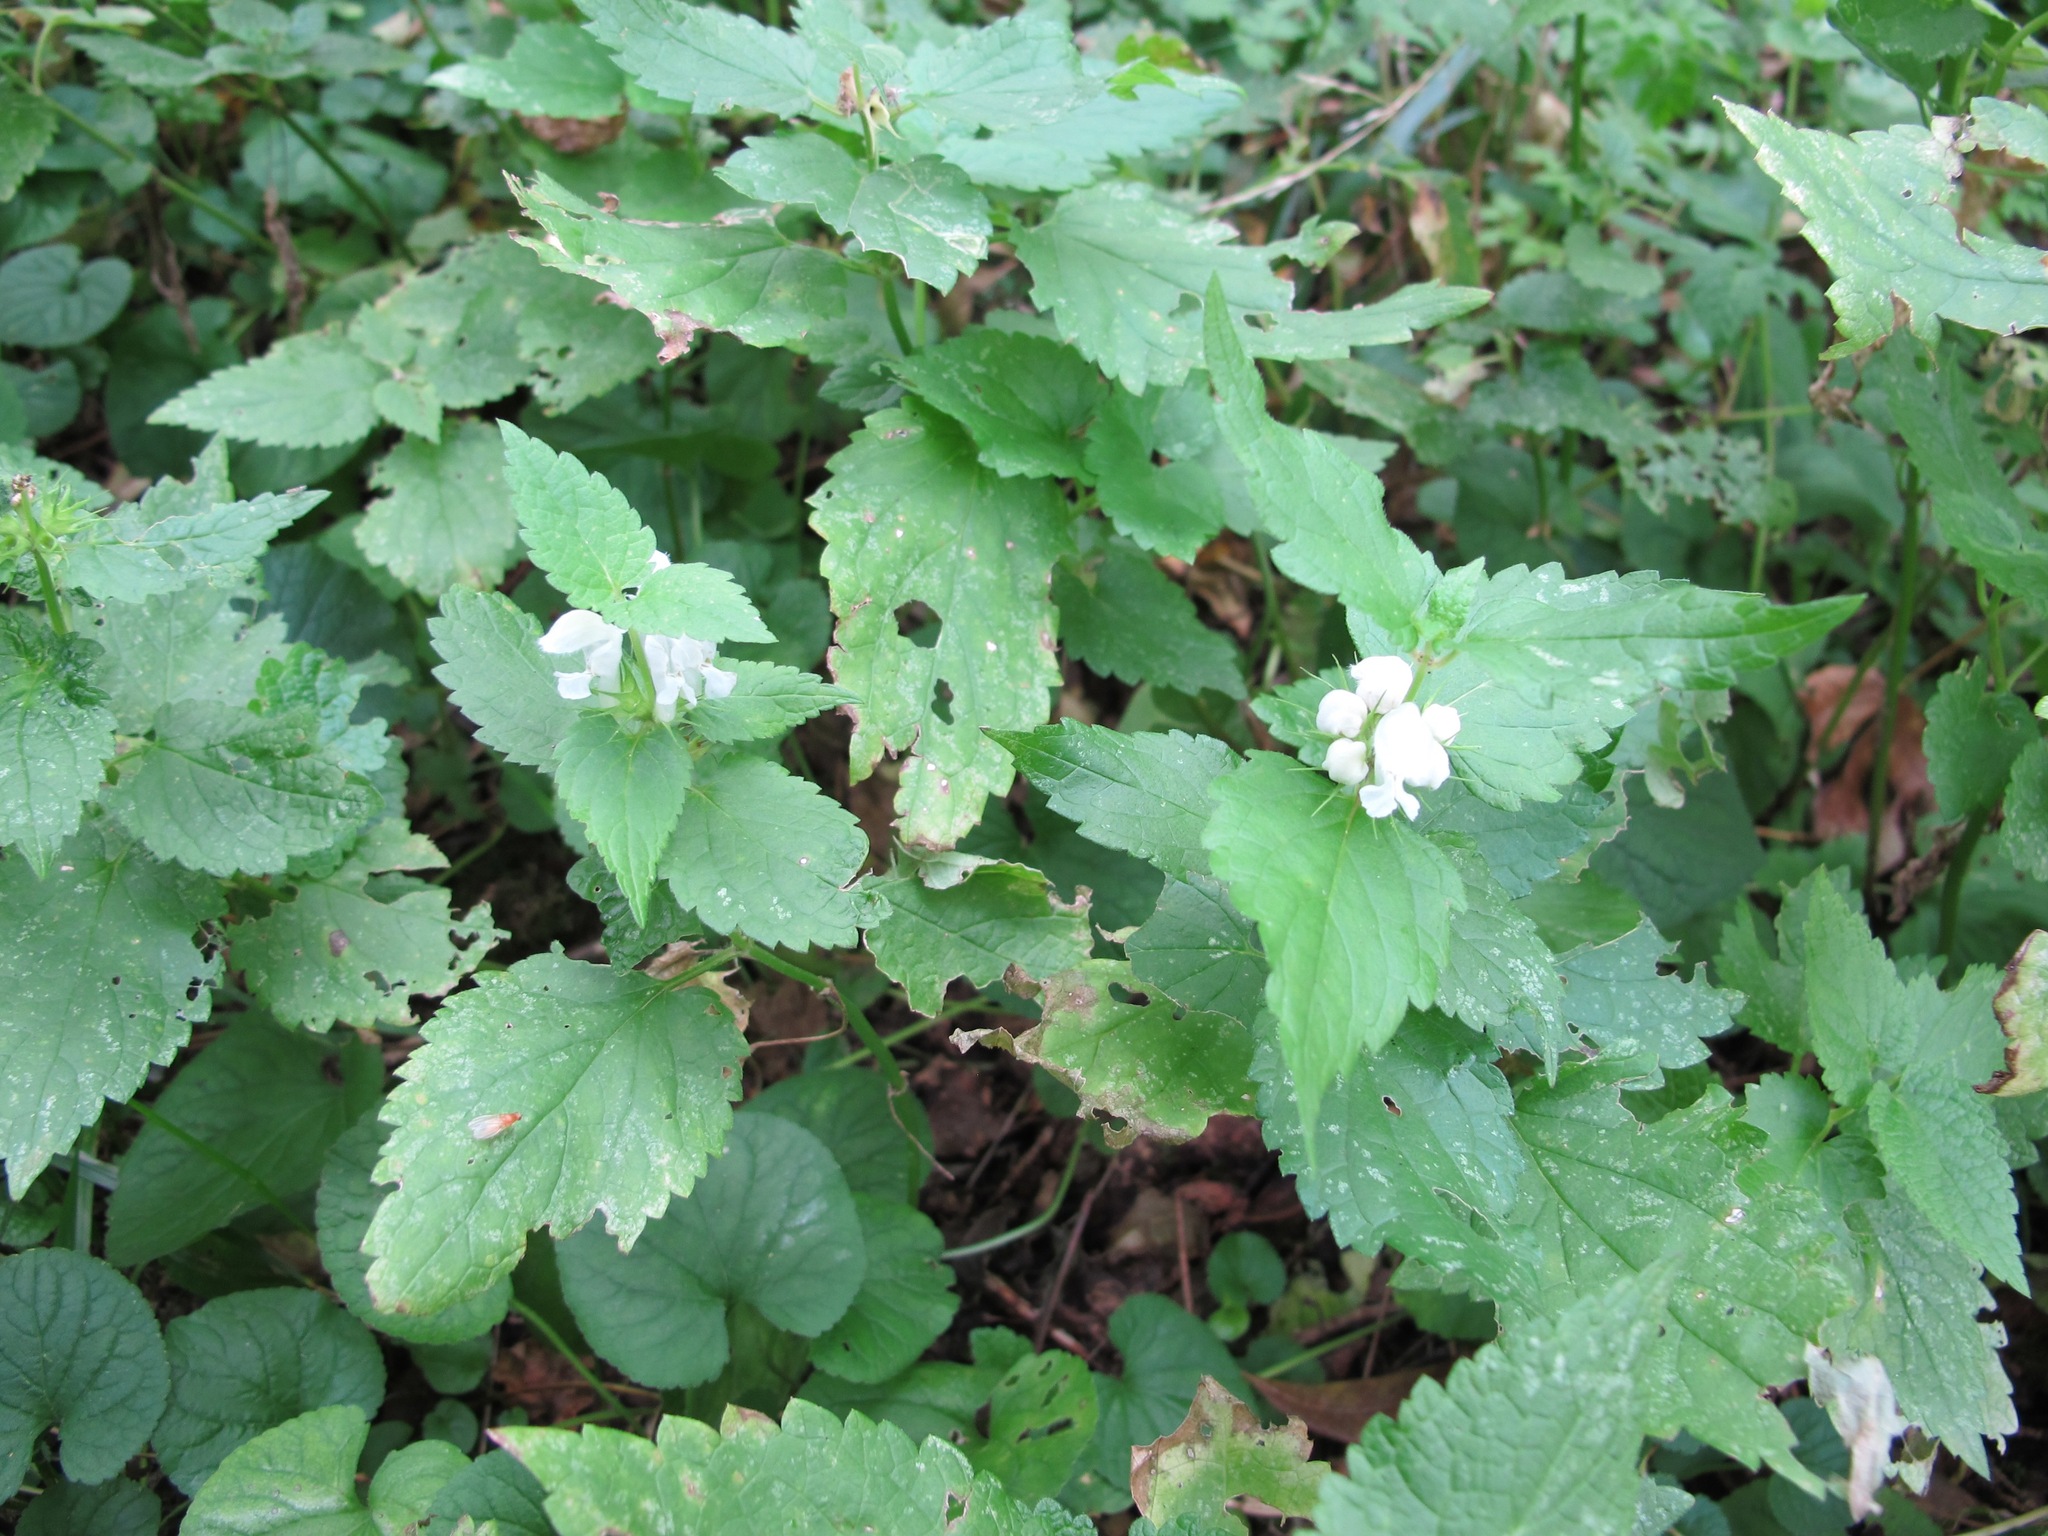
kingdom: Plantae
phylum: Tracheophyta
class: Magnoliopsida
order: Lamiales
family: Lamiaceae
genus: Lamium
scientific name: Lamium album
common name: White dead-nettle
